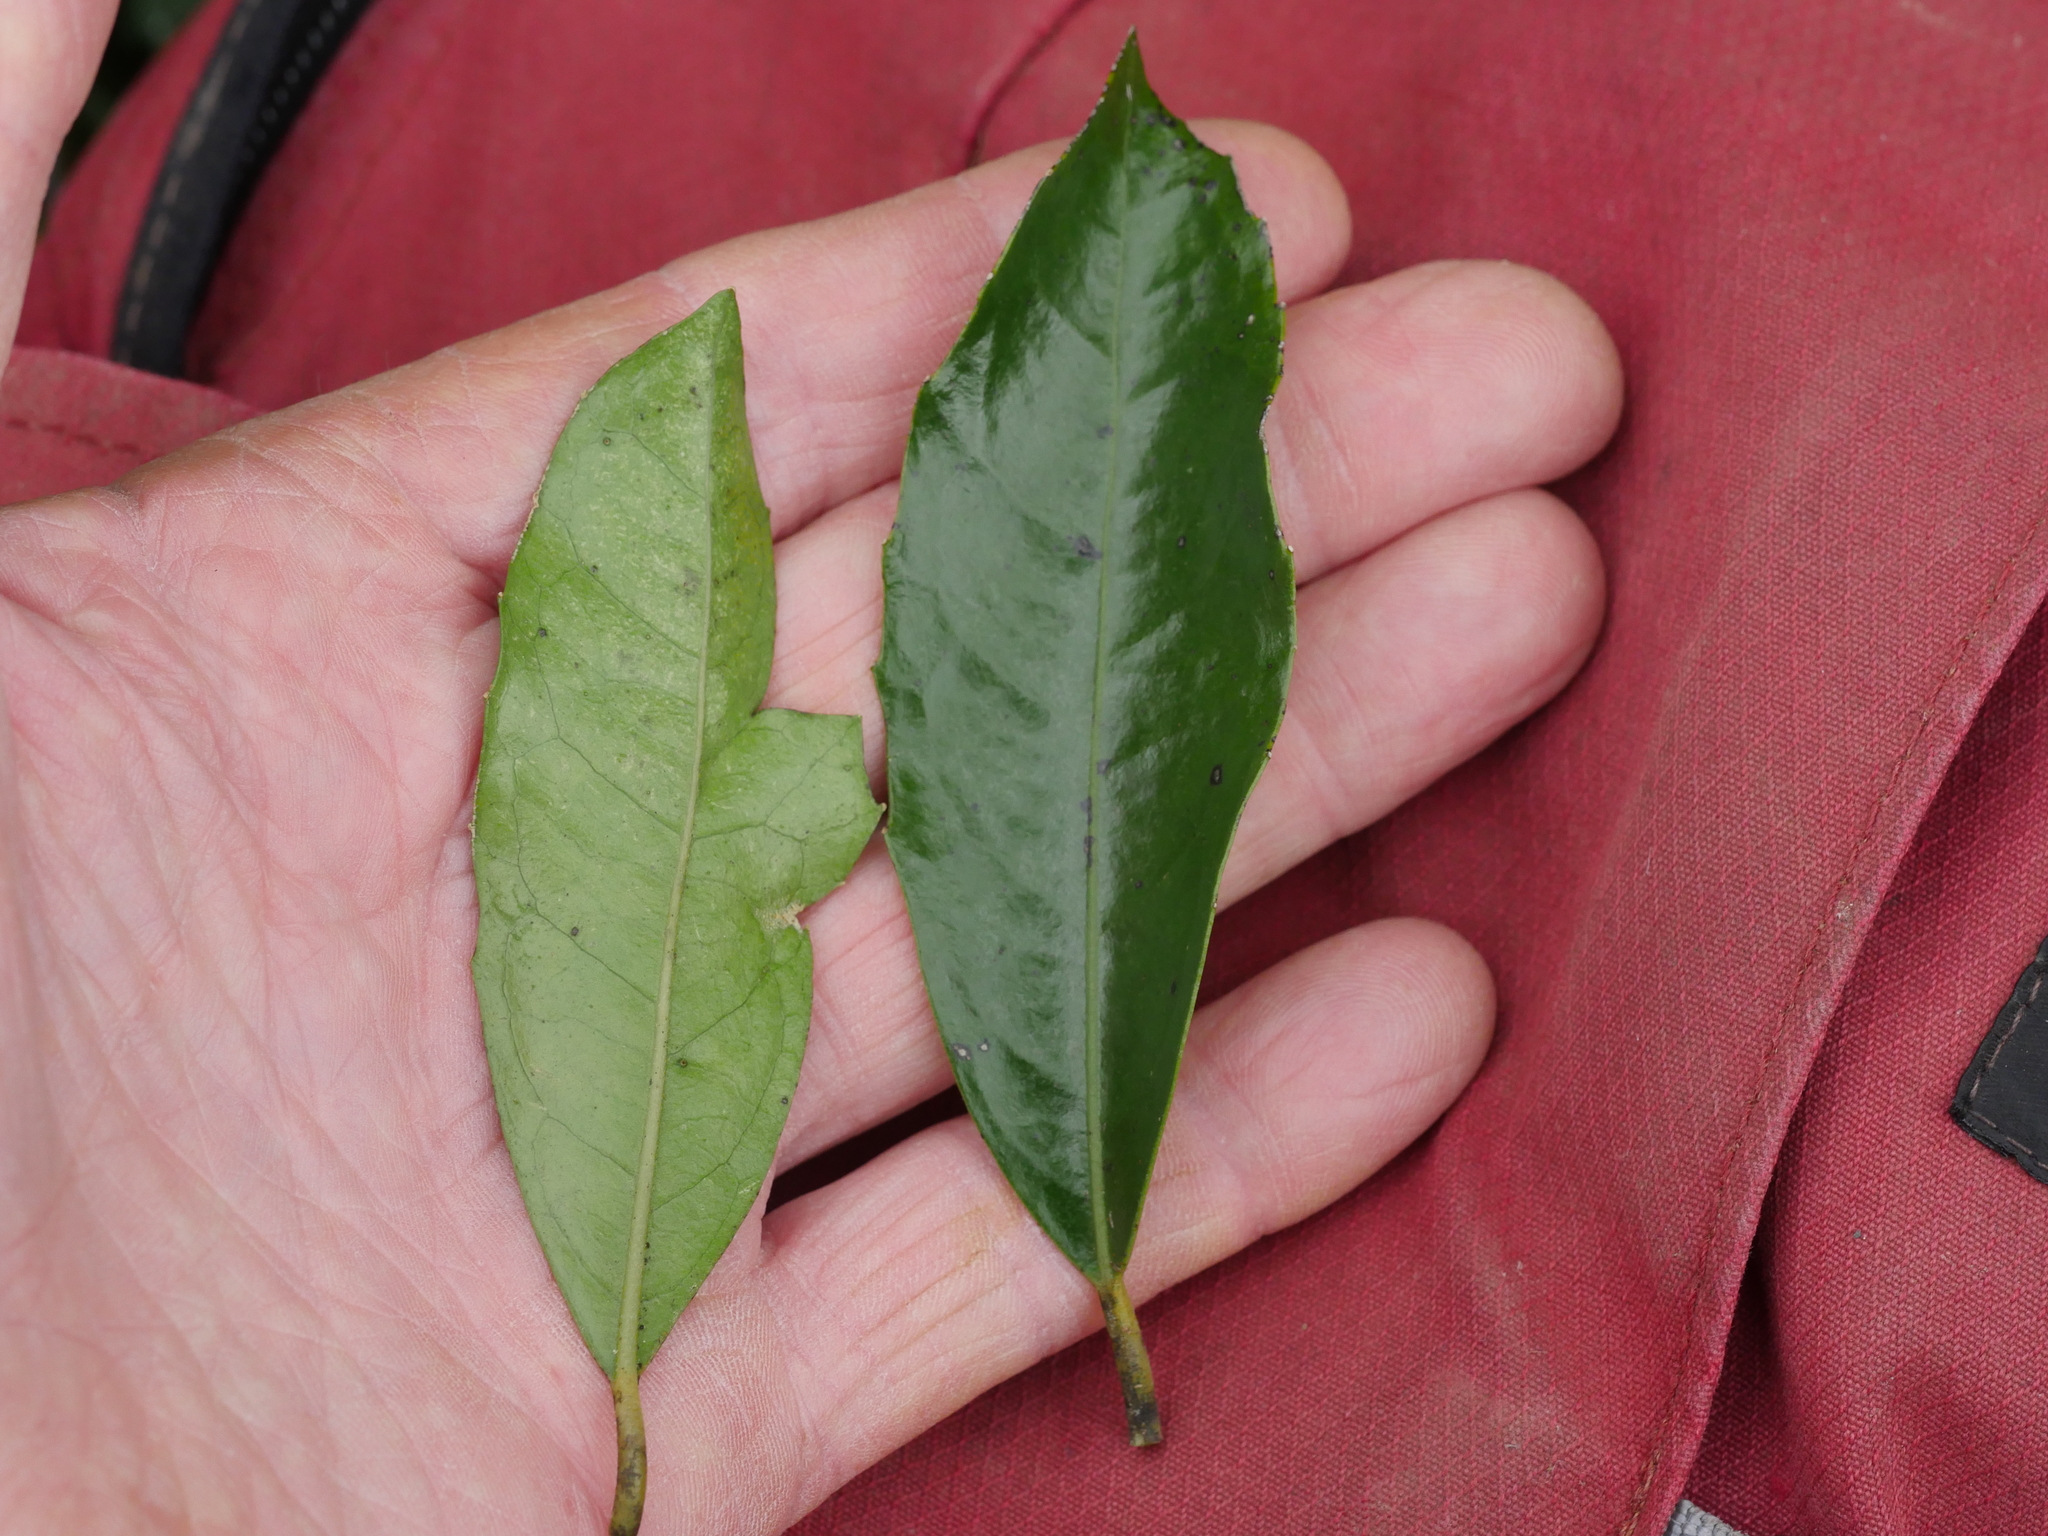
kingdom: Plantae
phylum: Tracheophyta
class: Magnoliopsida
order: Laurales
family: Monimiaceae
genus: Hedycarya
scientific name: Hedycarya arborea
